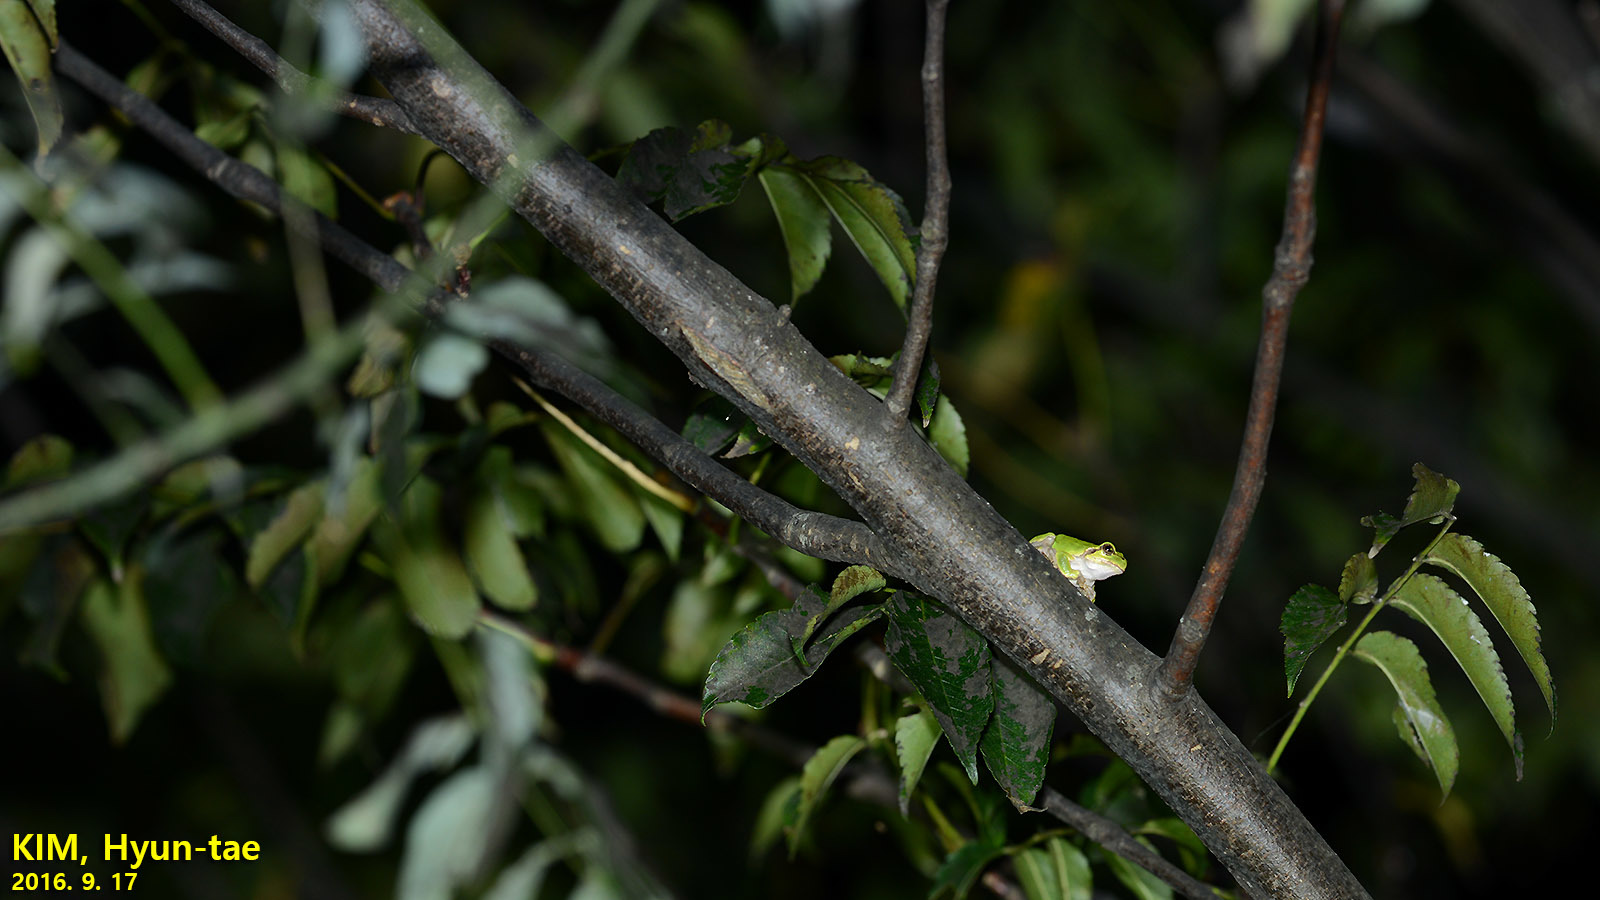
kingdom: Animalia
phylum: Chordata
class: Amphibia
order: Anura
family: Hylidae
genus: Dryophytes
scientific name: Dryophytes japonicus
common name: Japanese treefrog
